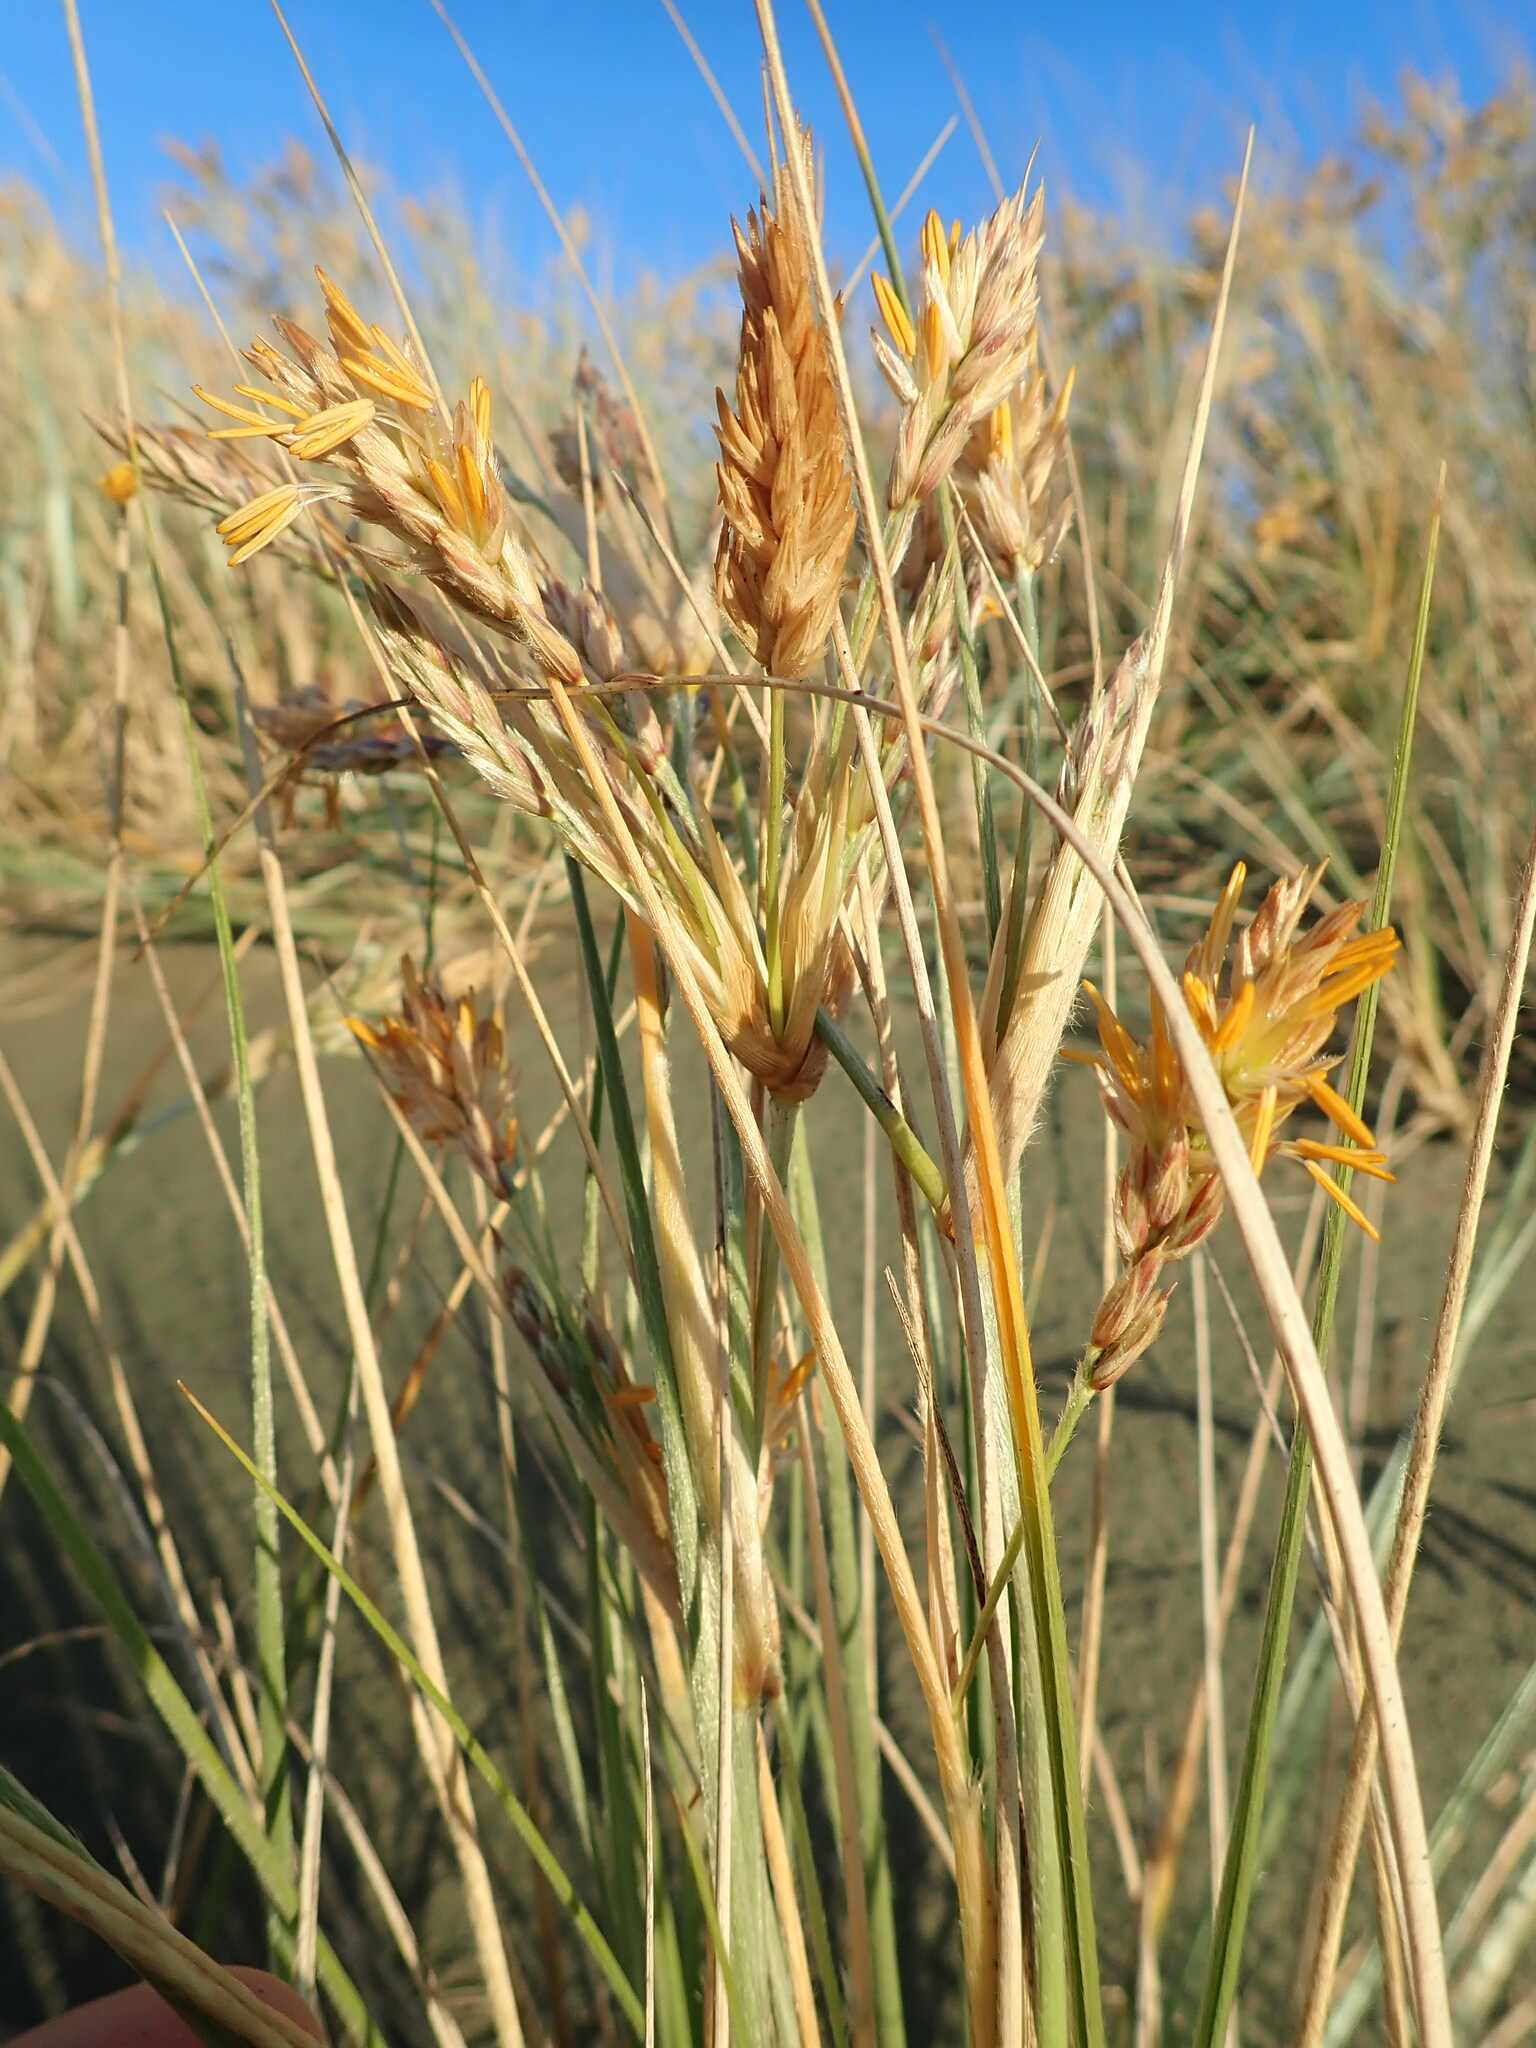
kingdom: Plantae
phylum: Tracheophyta
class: Liliopsida
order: Poales
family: Poaceae
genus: Spinifex
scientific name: Spinifex sericeus
